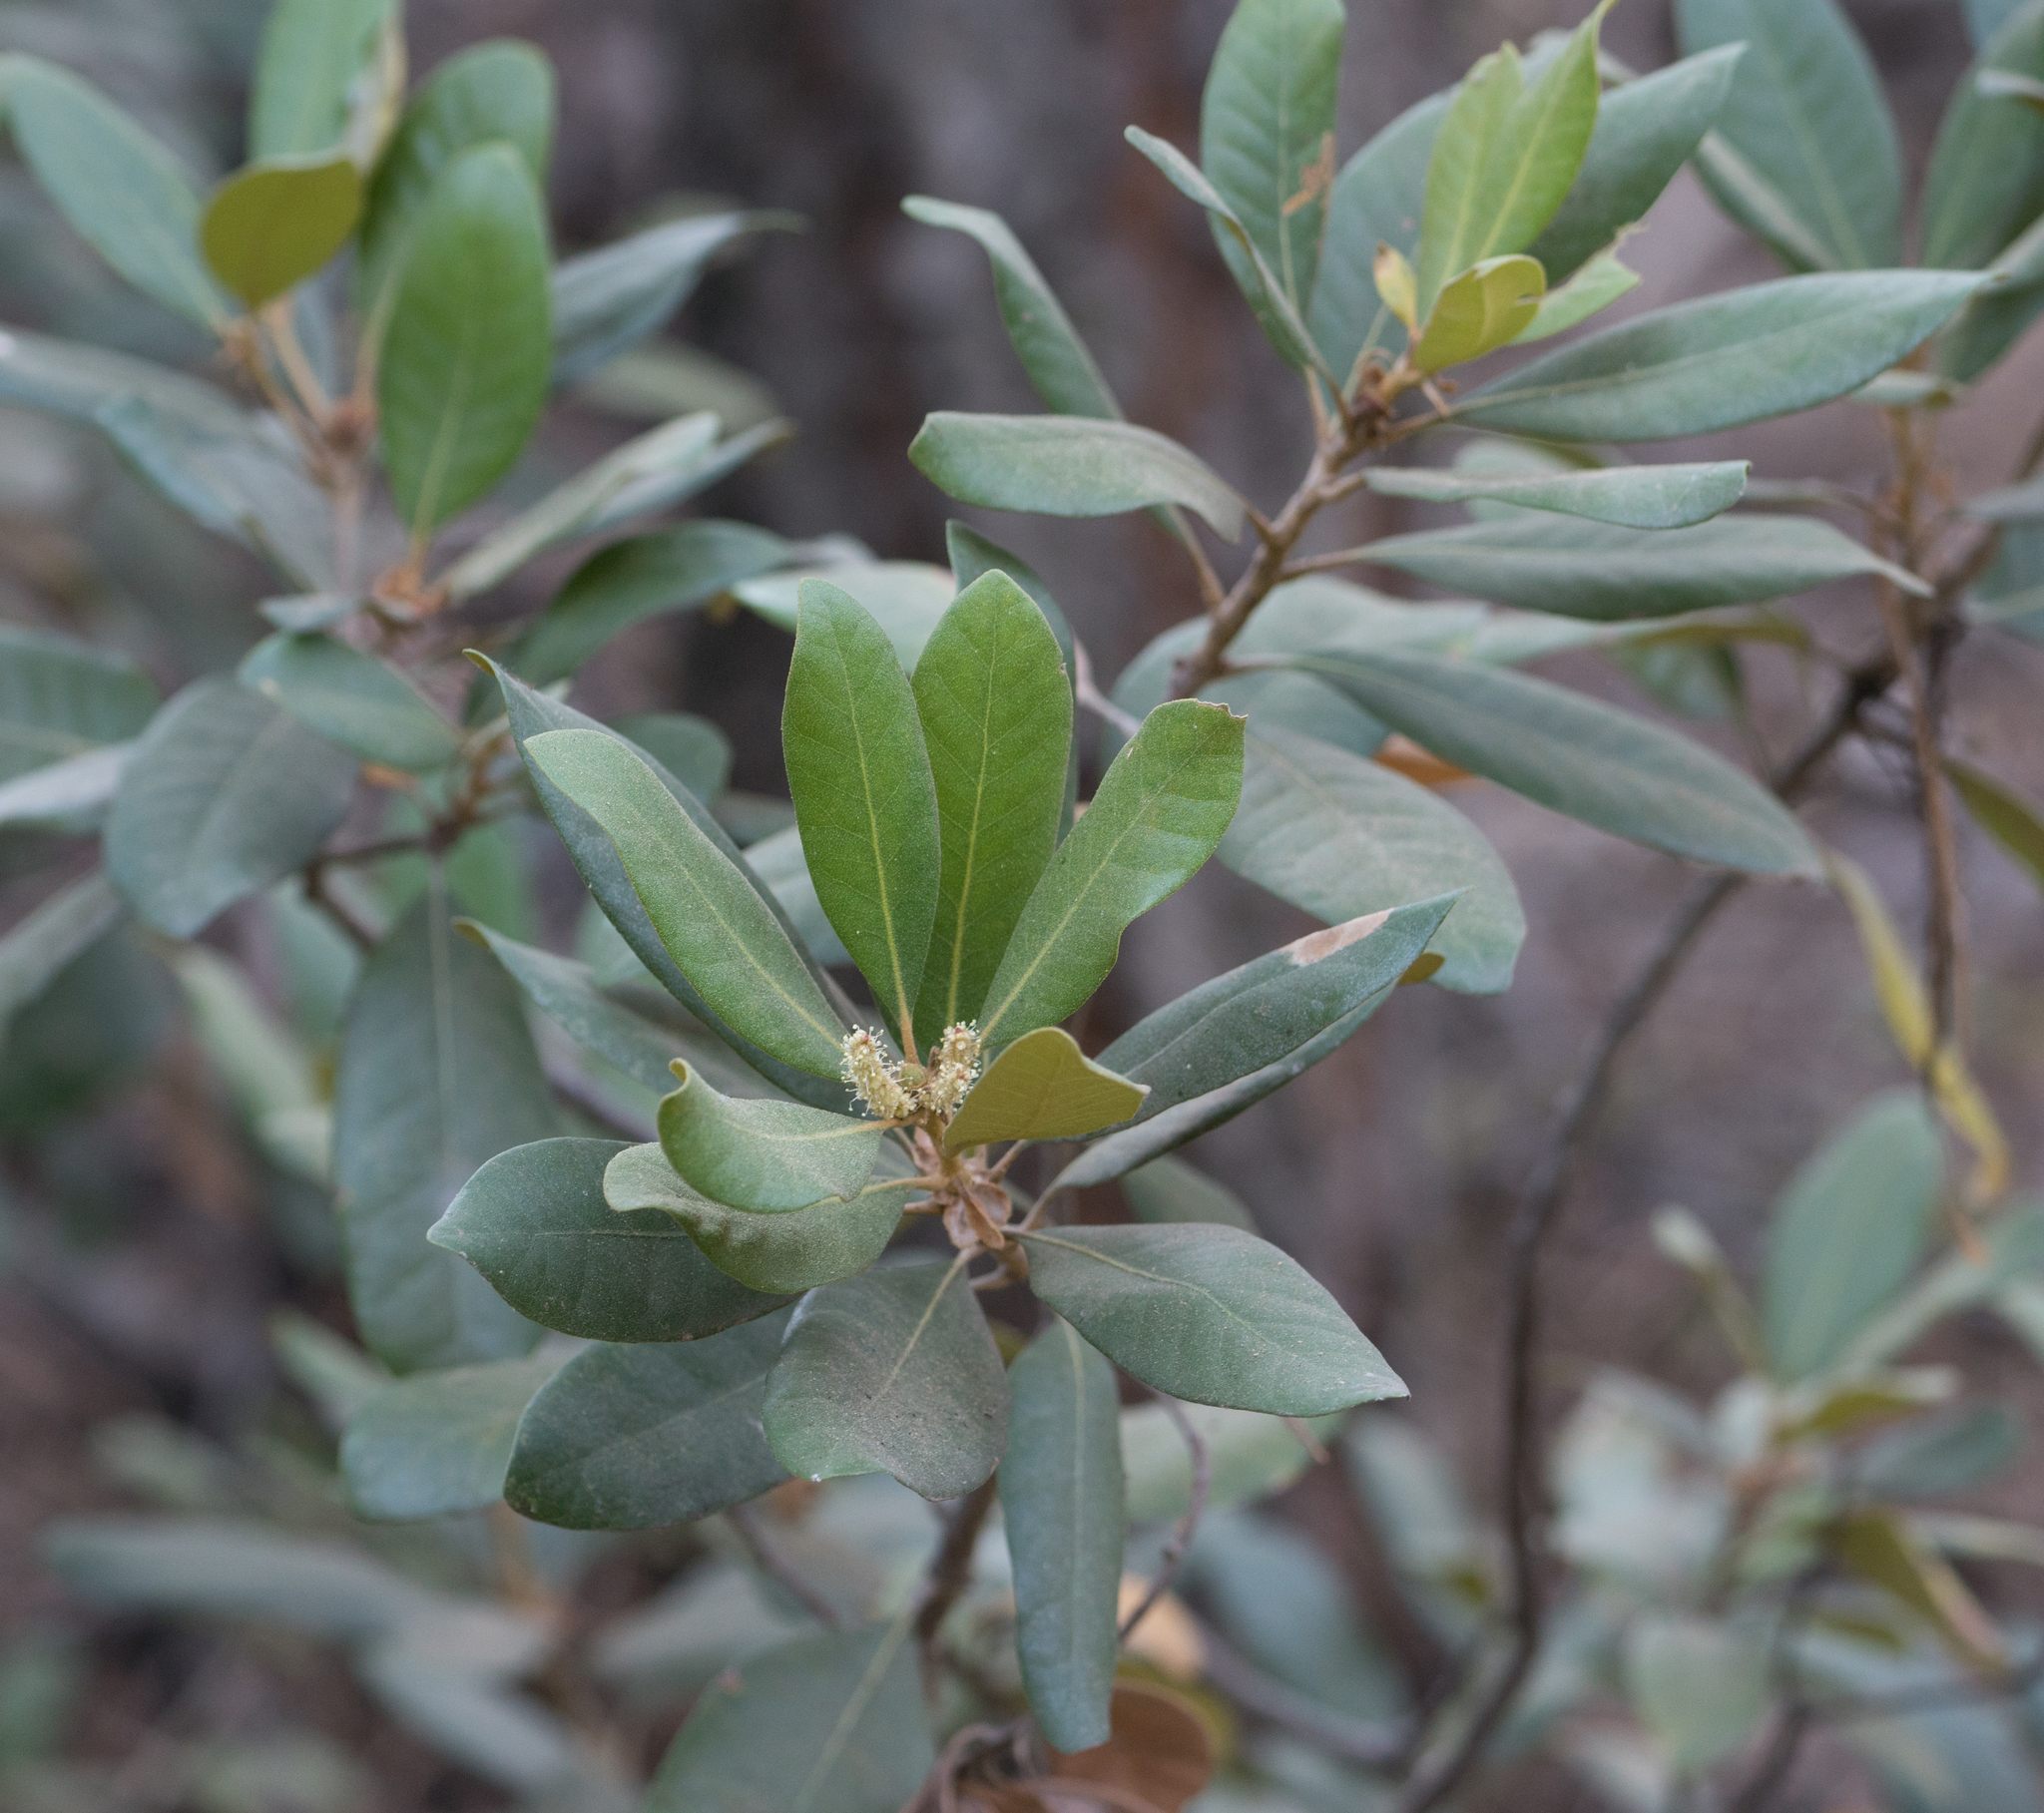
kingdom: Plantae
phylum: Tracheophyta
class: Magnoliopsida
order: Fagales
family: Fagaceae
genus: Chrysolepis
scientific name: Chrysolepis sempervirens
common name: Bush chinquapin
